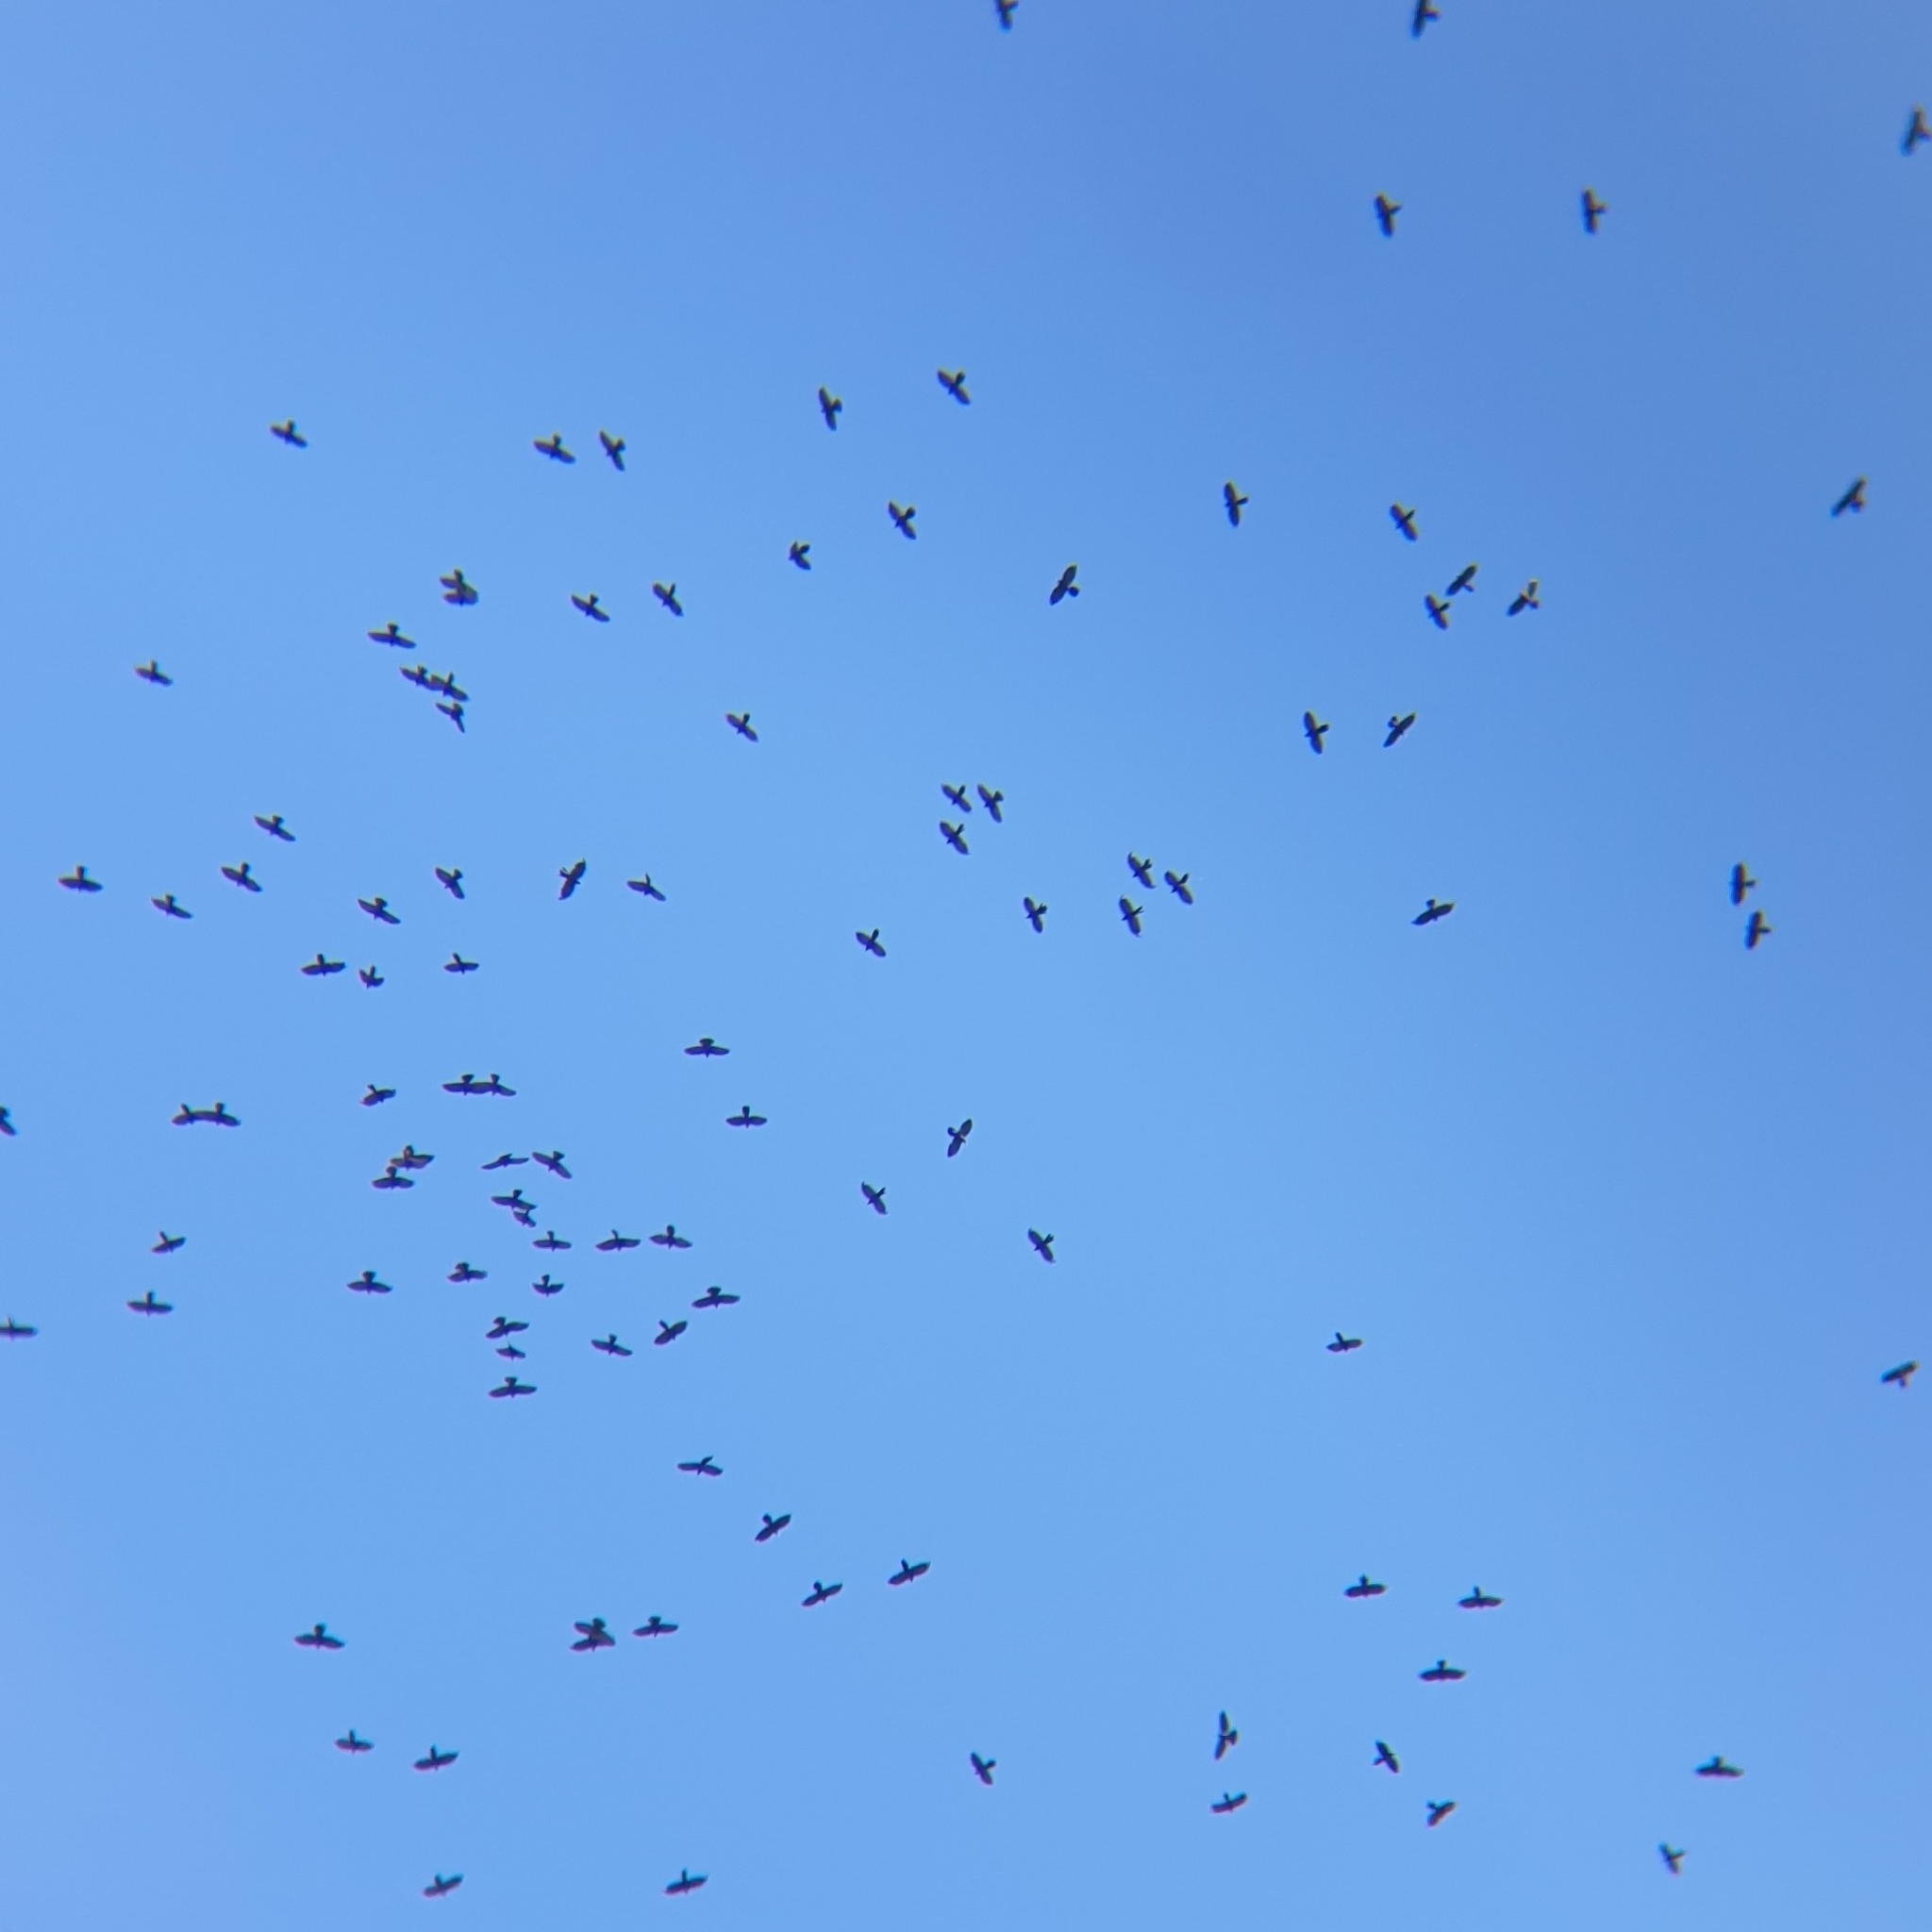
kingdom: Animalia
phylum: Chordata
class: Aves
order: Passeriformes
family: Corvidae
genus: Pyrrhocorax
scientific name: Pyrrhocorax graculus
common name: Alpine chough
